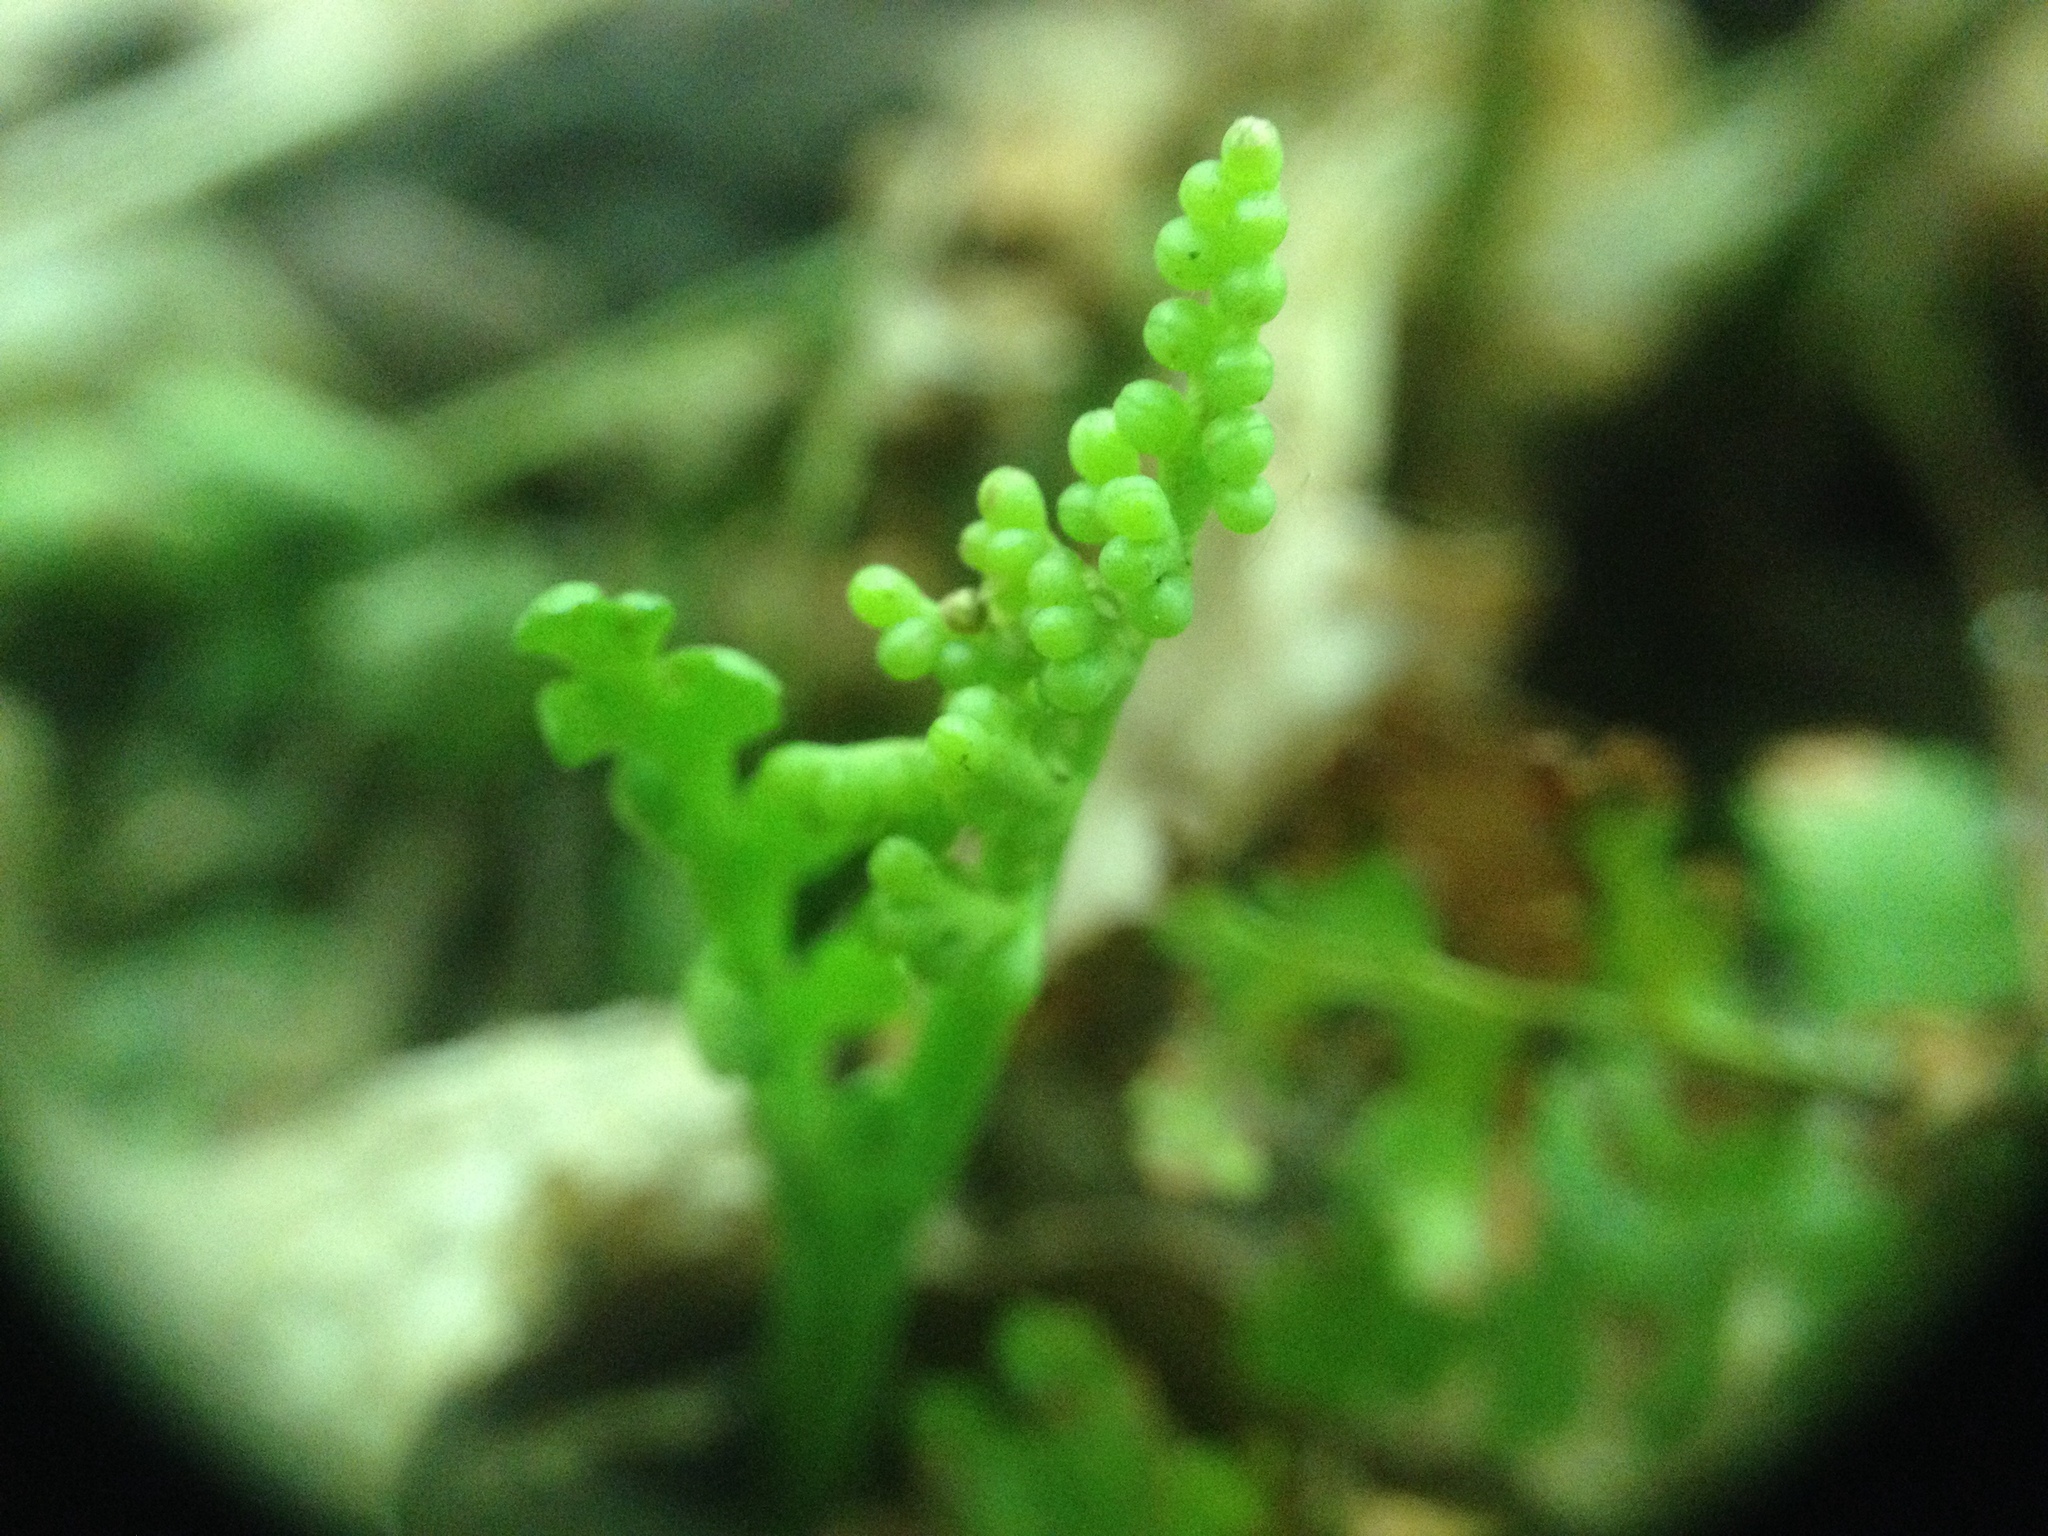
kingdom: Plantae
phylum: Tracheophyta
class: Polypodiopsida
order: Ophioglossales
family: Ophioglossaceae
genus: Botrychium
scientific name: Botrychium matricariifolium
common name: Branched moonwort
